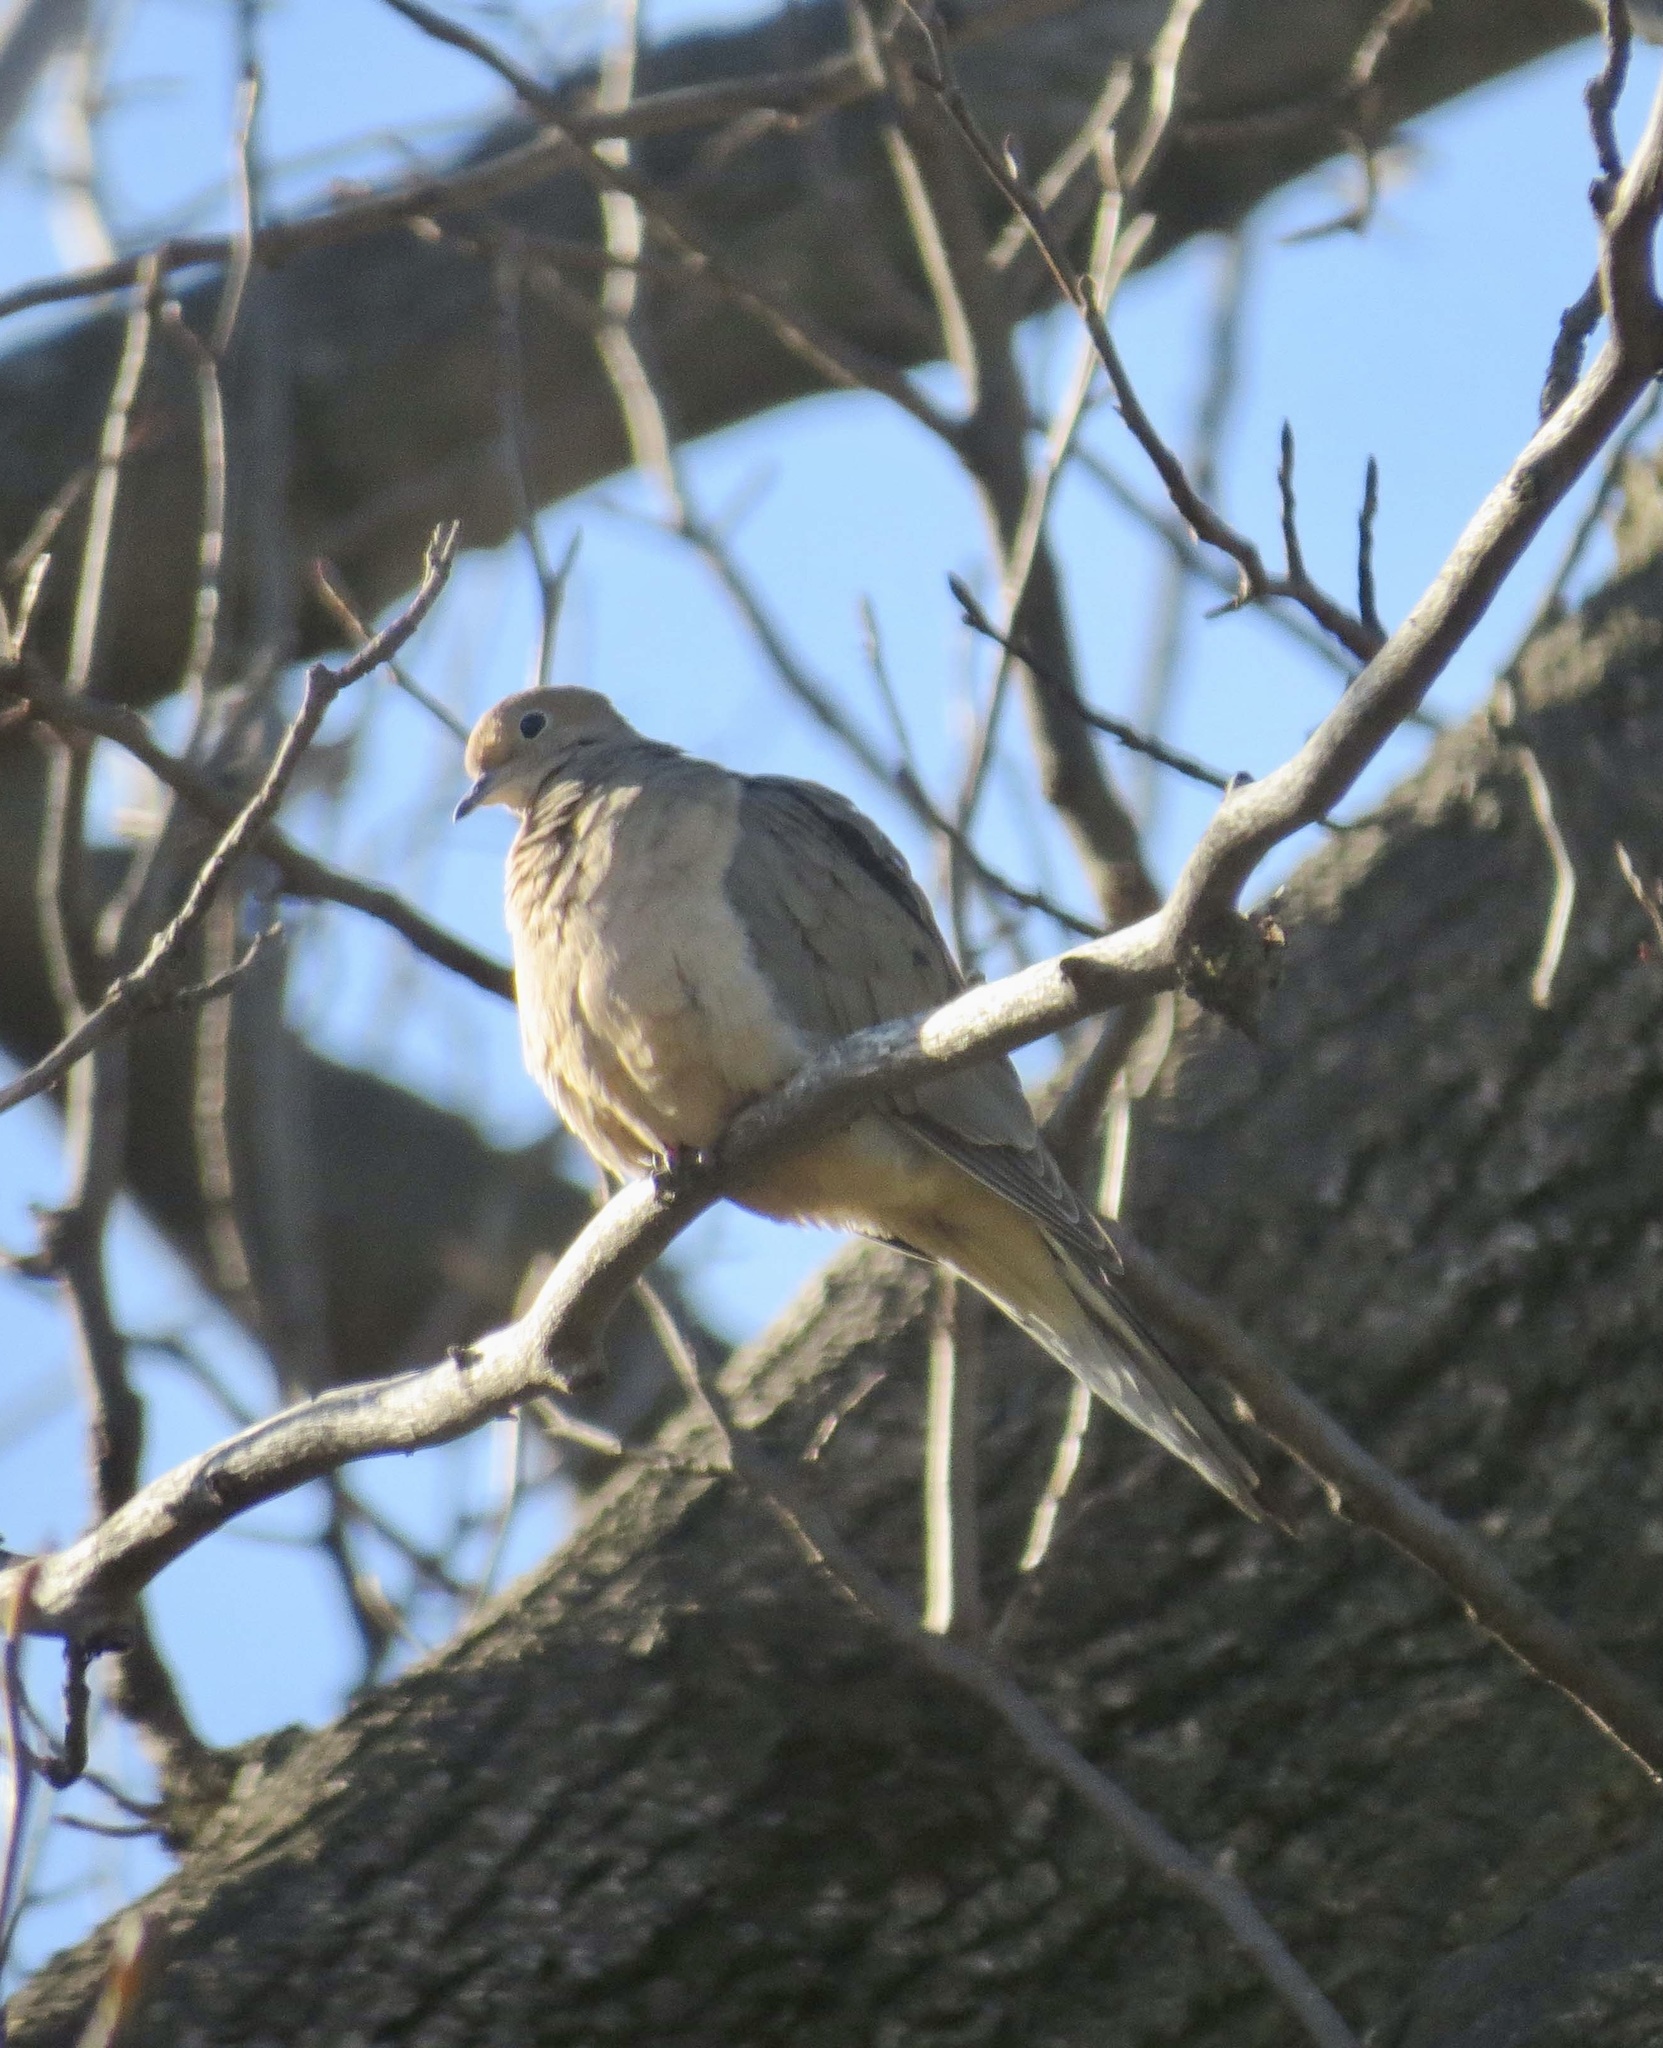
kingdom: Animalia
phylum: Chordata
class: Aves
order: Columbiformes
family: Columbidae
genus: Zenaida
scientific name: Zenaida macroura
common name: Mourning dove
